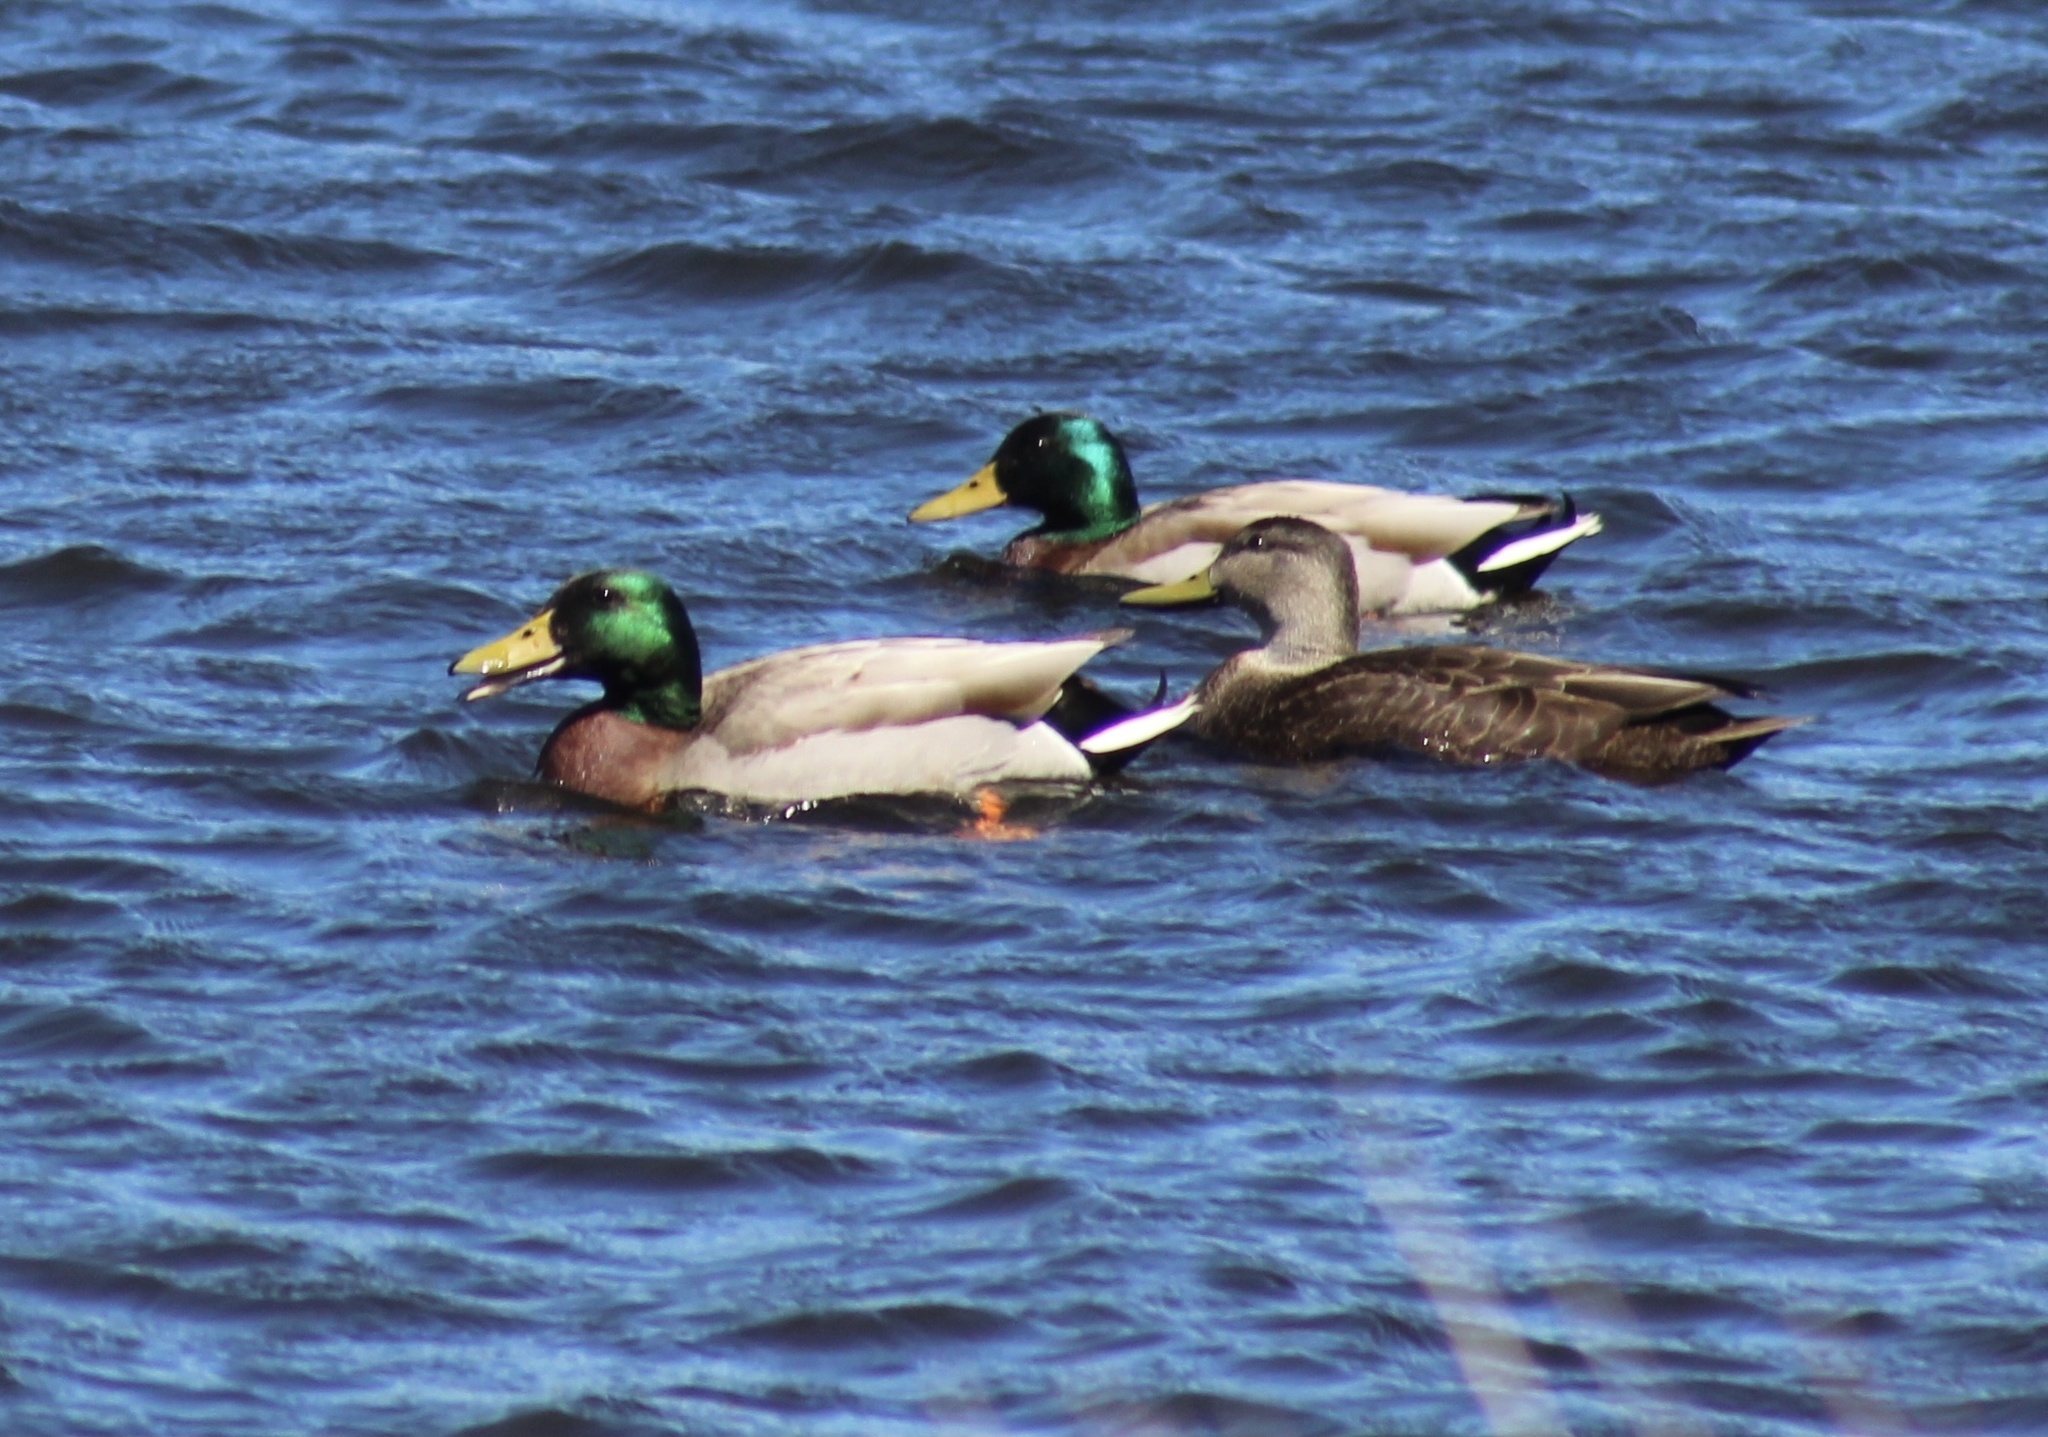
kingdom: Animalia
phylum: Chordata
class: Aves
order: Anseriformes
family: Anatidae
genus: Anas
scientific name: Anas platyrhynchos
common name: Mallard
